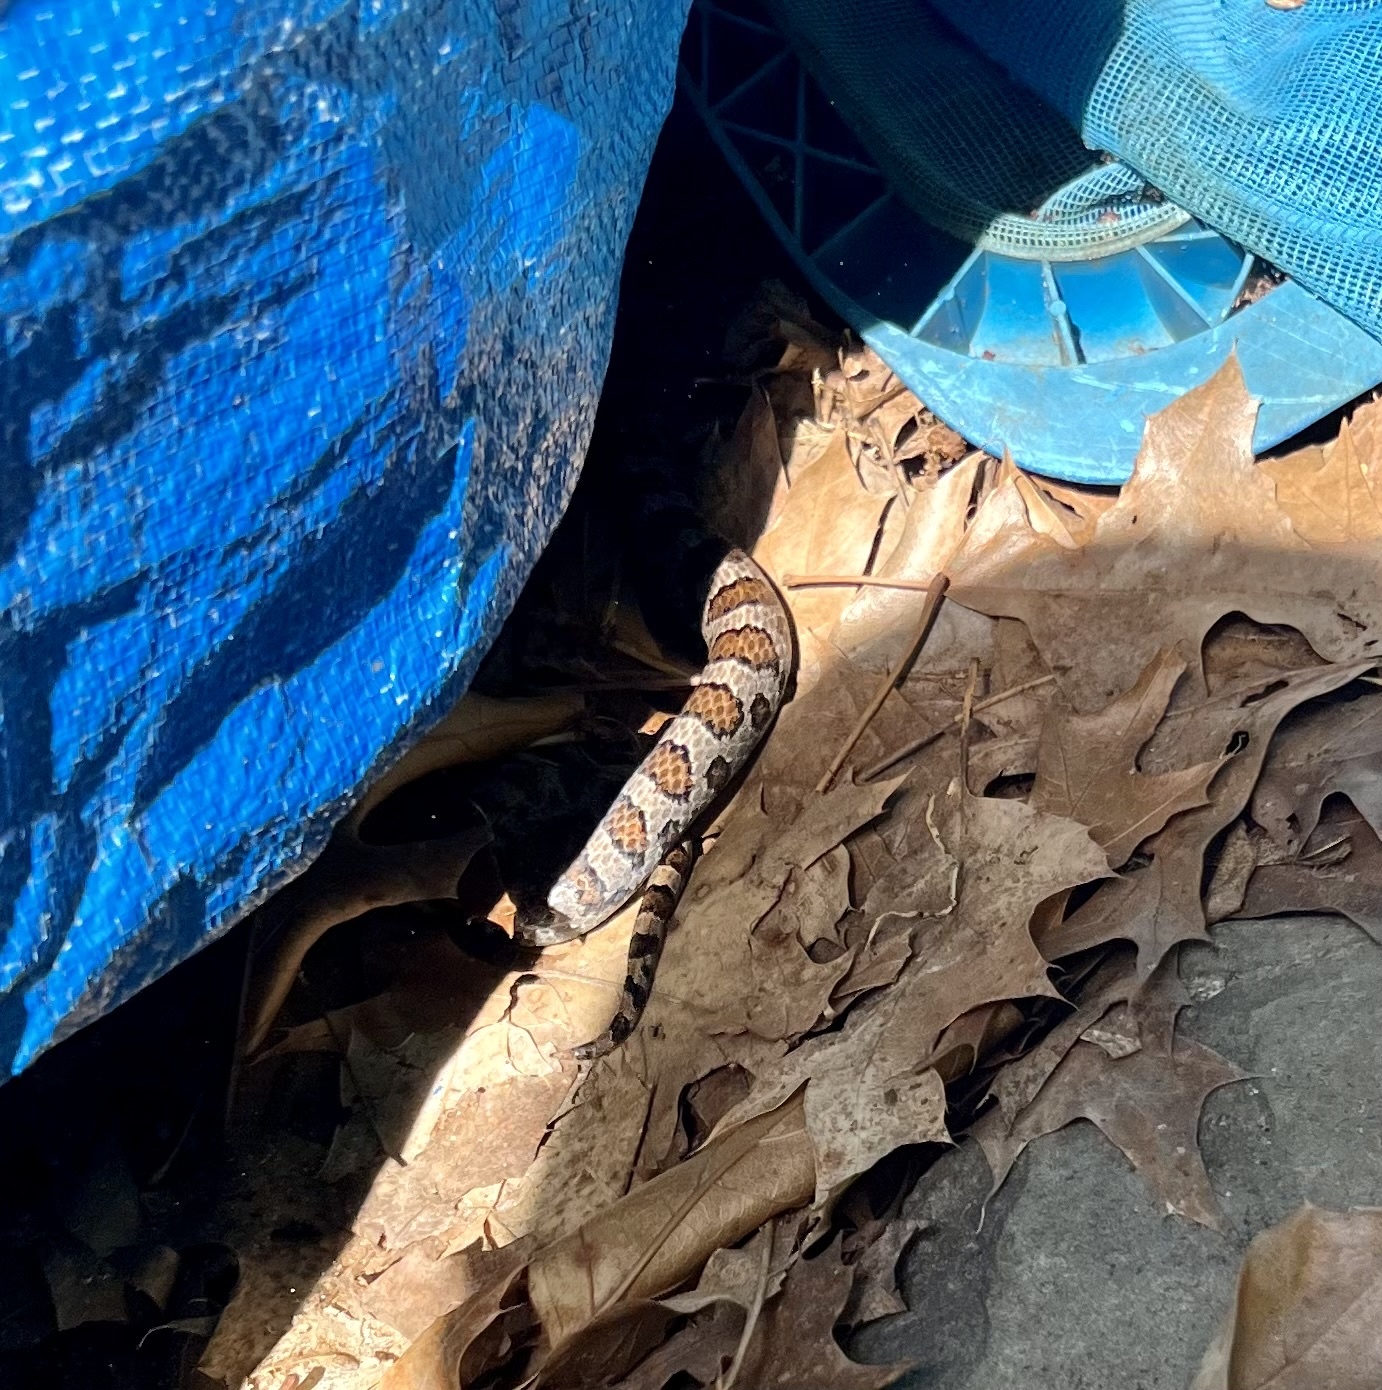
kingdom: Animalia
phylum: Chordata
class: Squamata
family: Colubridae
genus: Lampropeltis
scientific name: Lampropeltis triangulum
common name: Eastern milksnake
